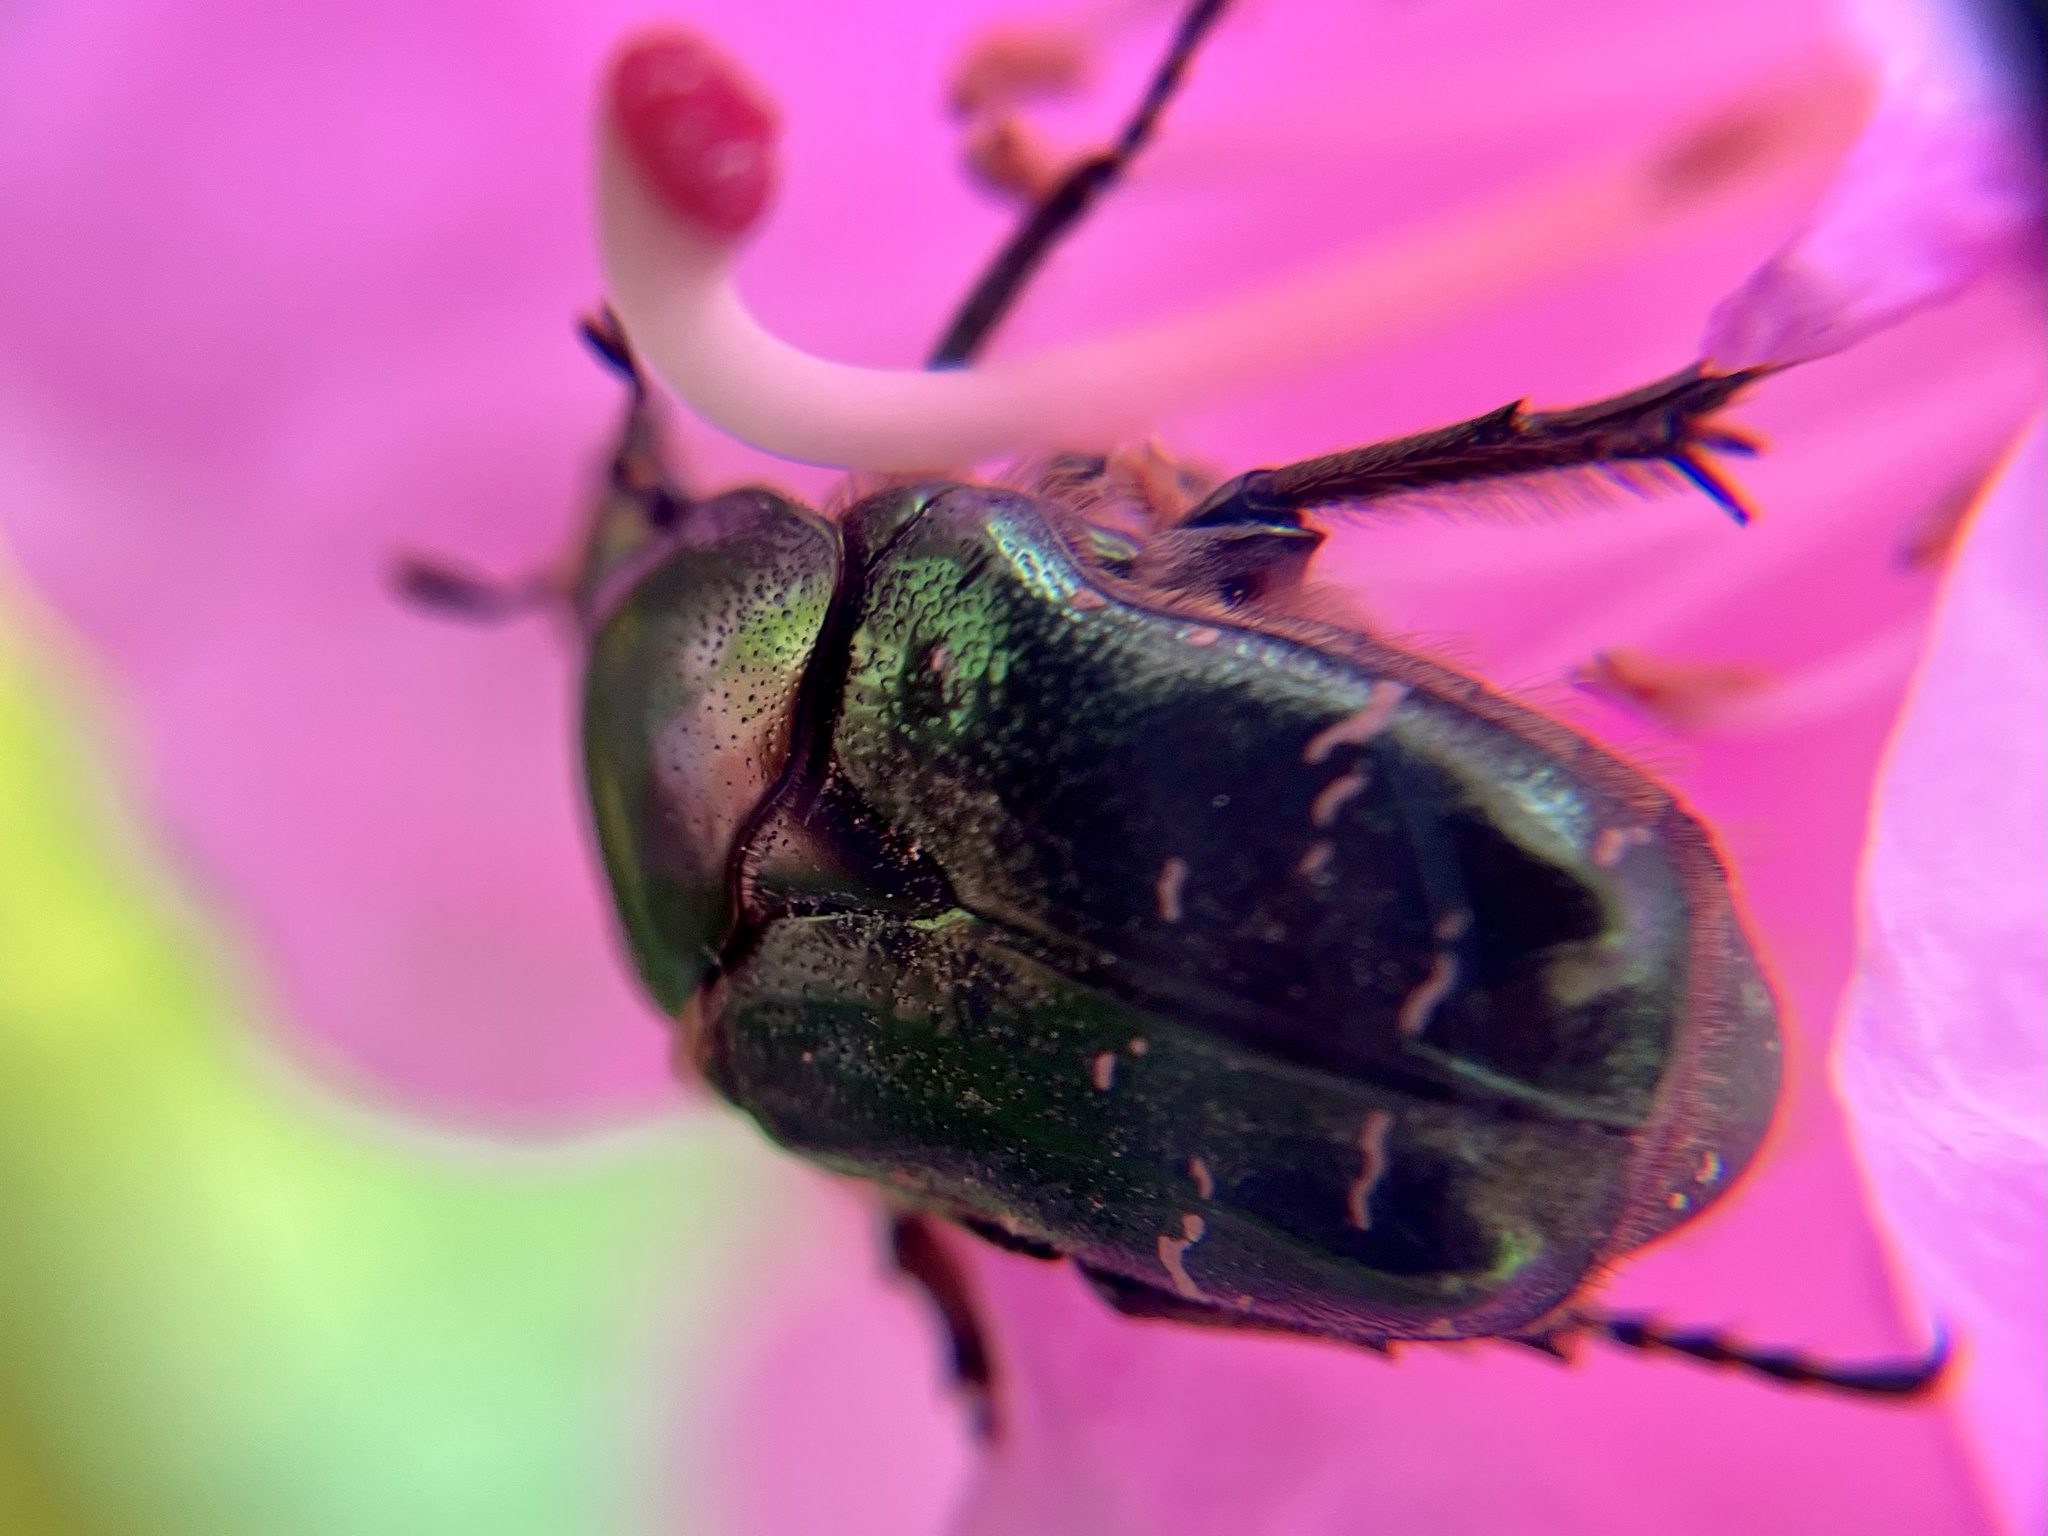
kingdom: Animalia
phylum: Arthropoda
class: Insecta
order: Coleoptera
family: Scarabaeidae
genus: Cetonia
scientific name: Cetonia aurata
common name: Rose chafer
